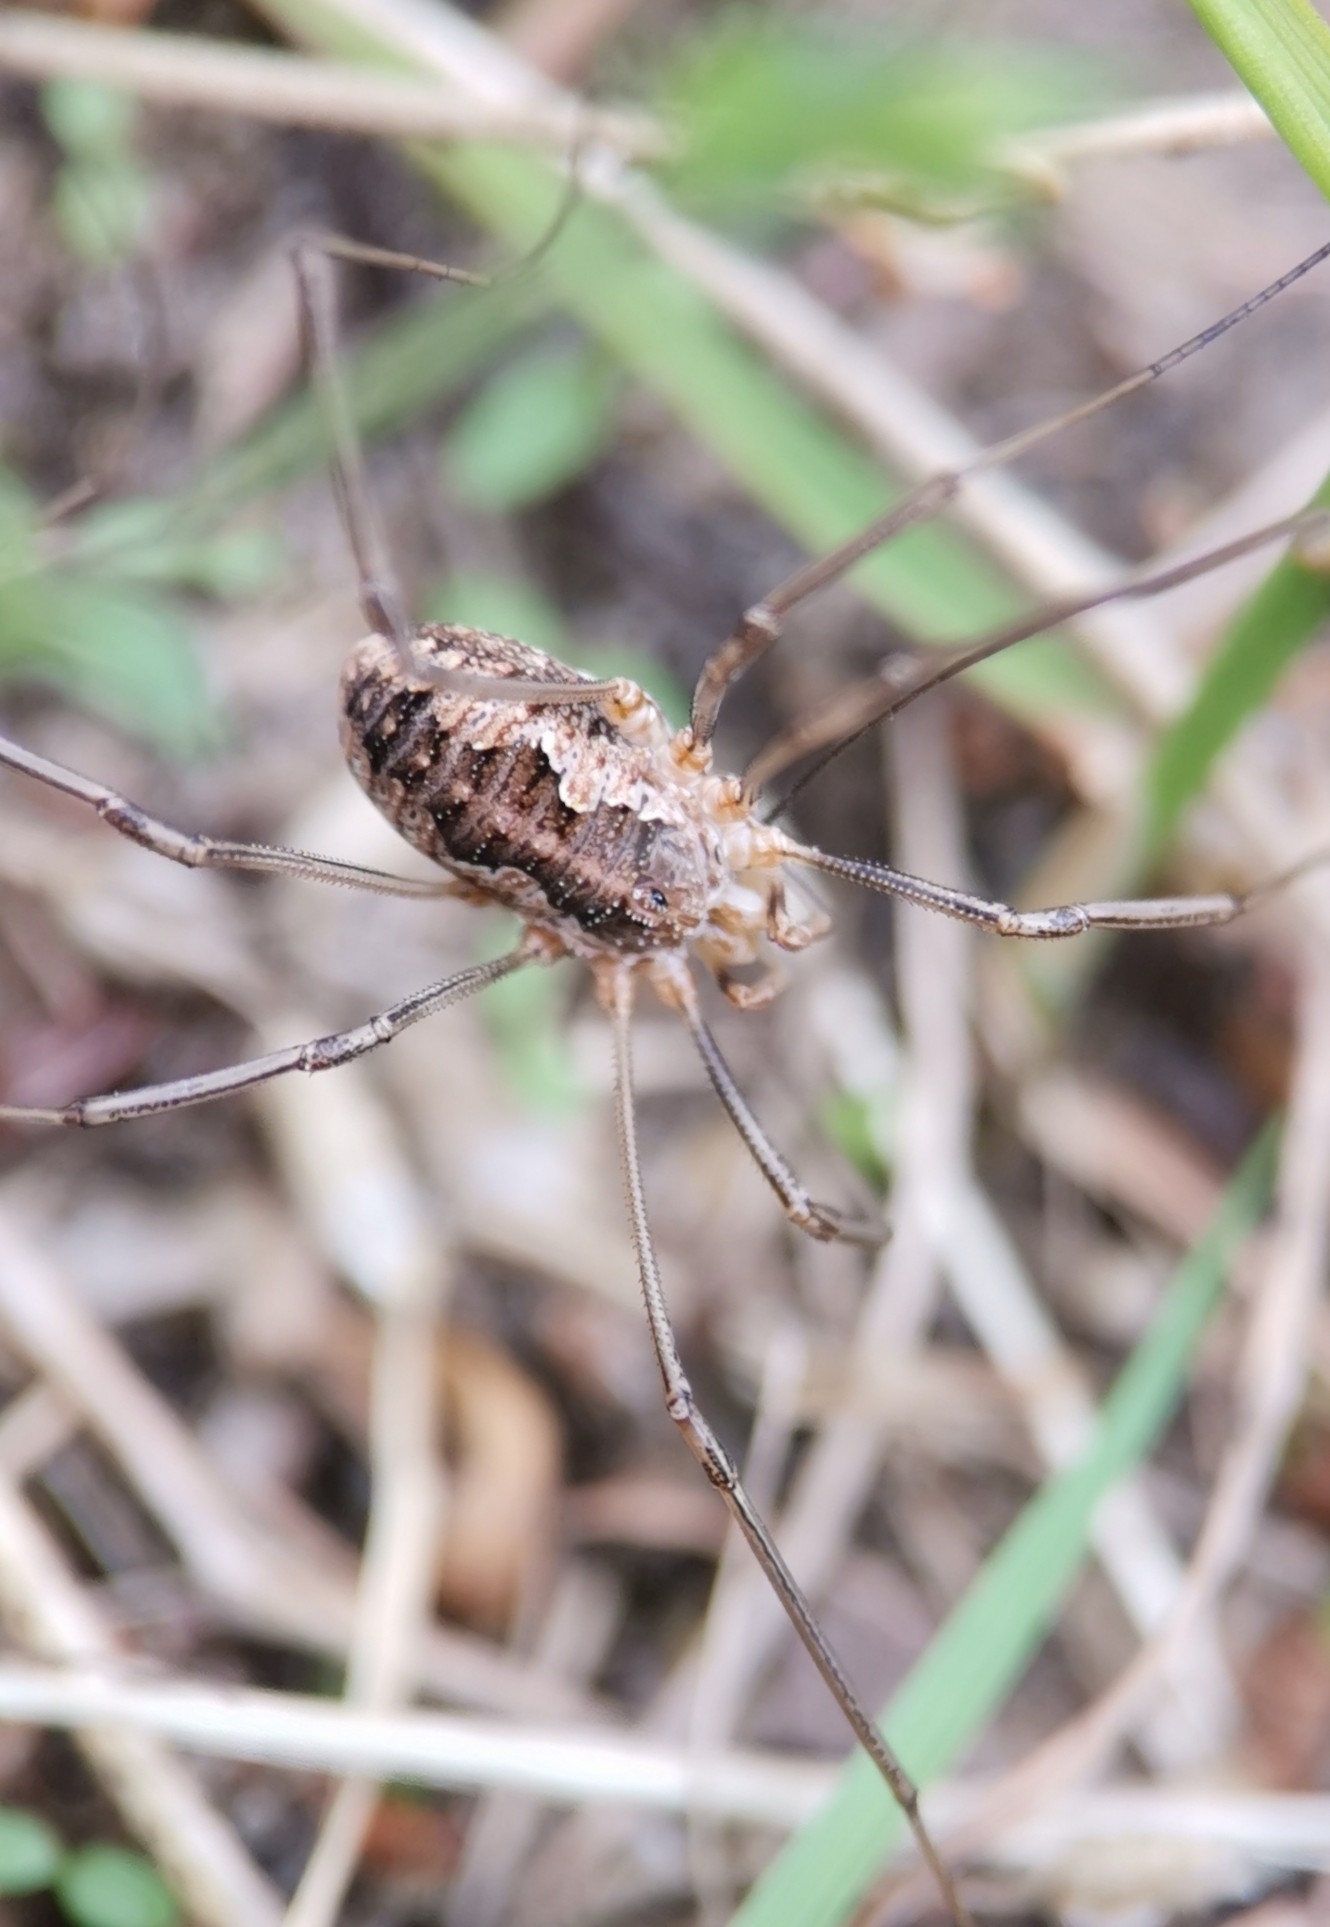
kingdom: Animalia
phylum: Arthropoda
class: Arachnida
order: Opiliones
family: Phalangiidae
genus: Phalangium
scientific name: Phalangium opilio
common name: Daddy longleg
